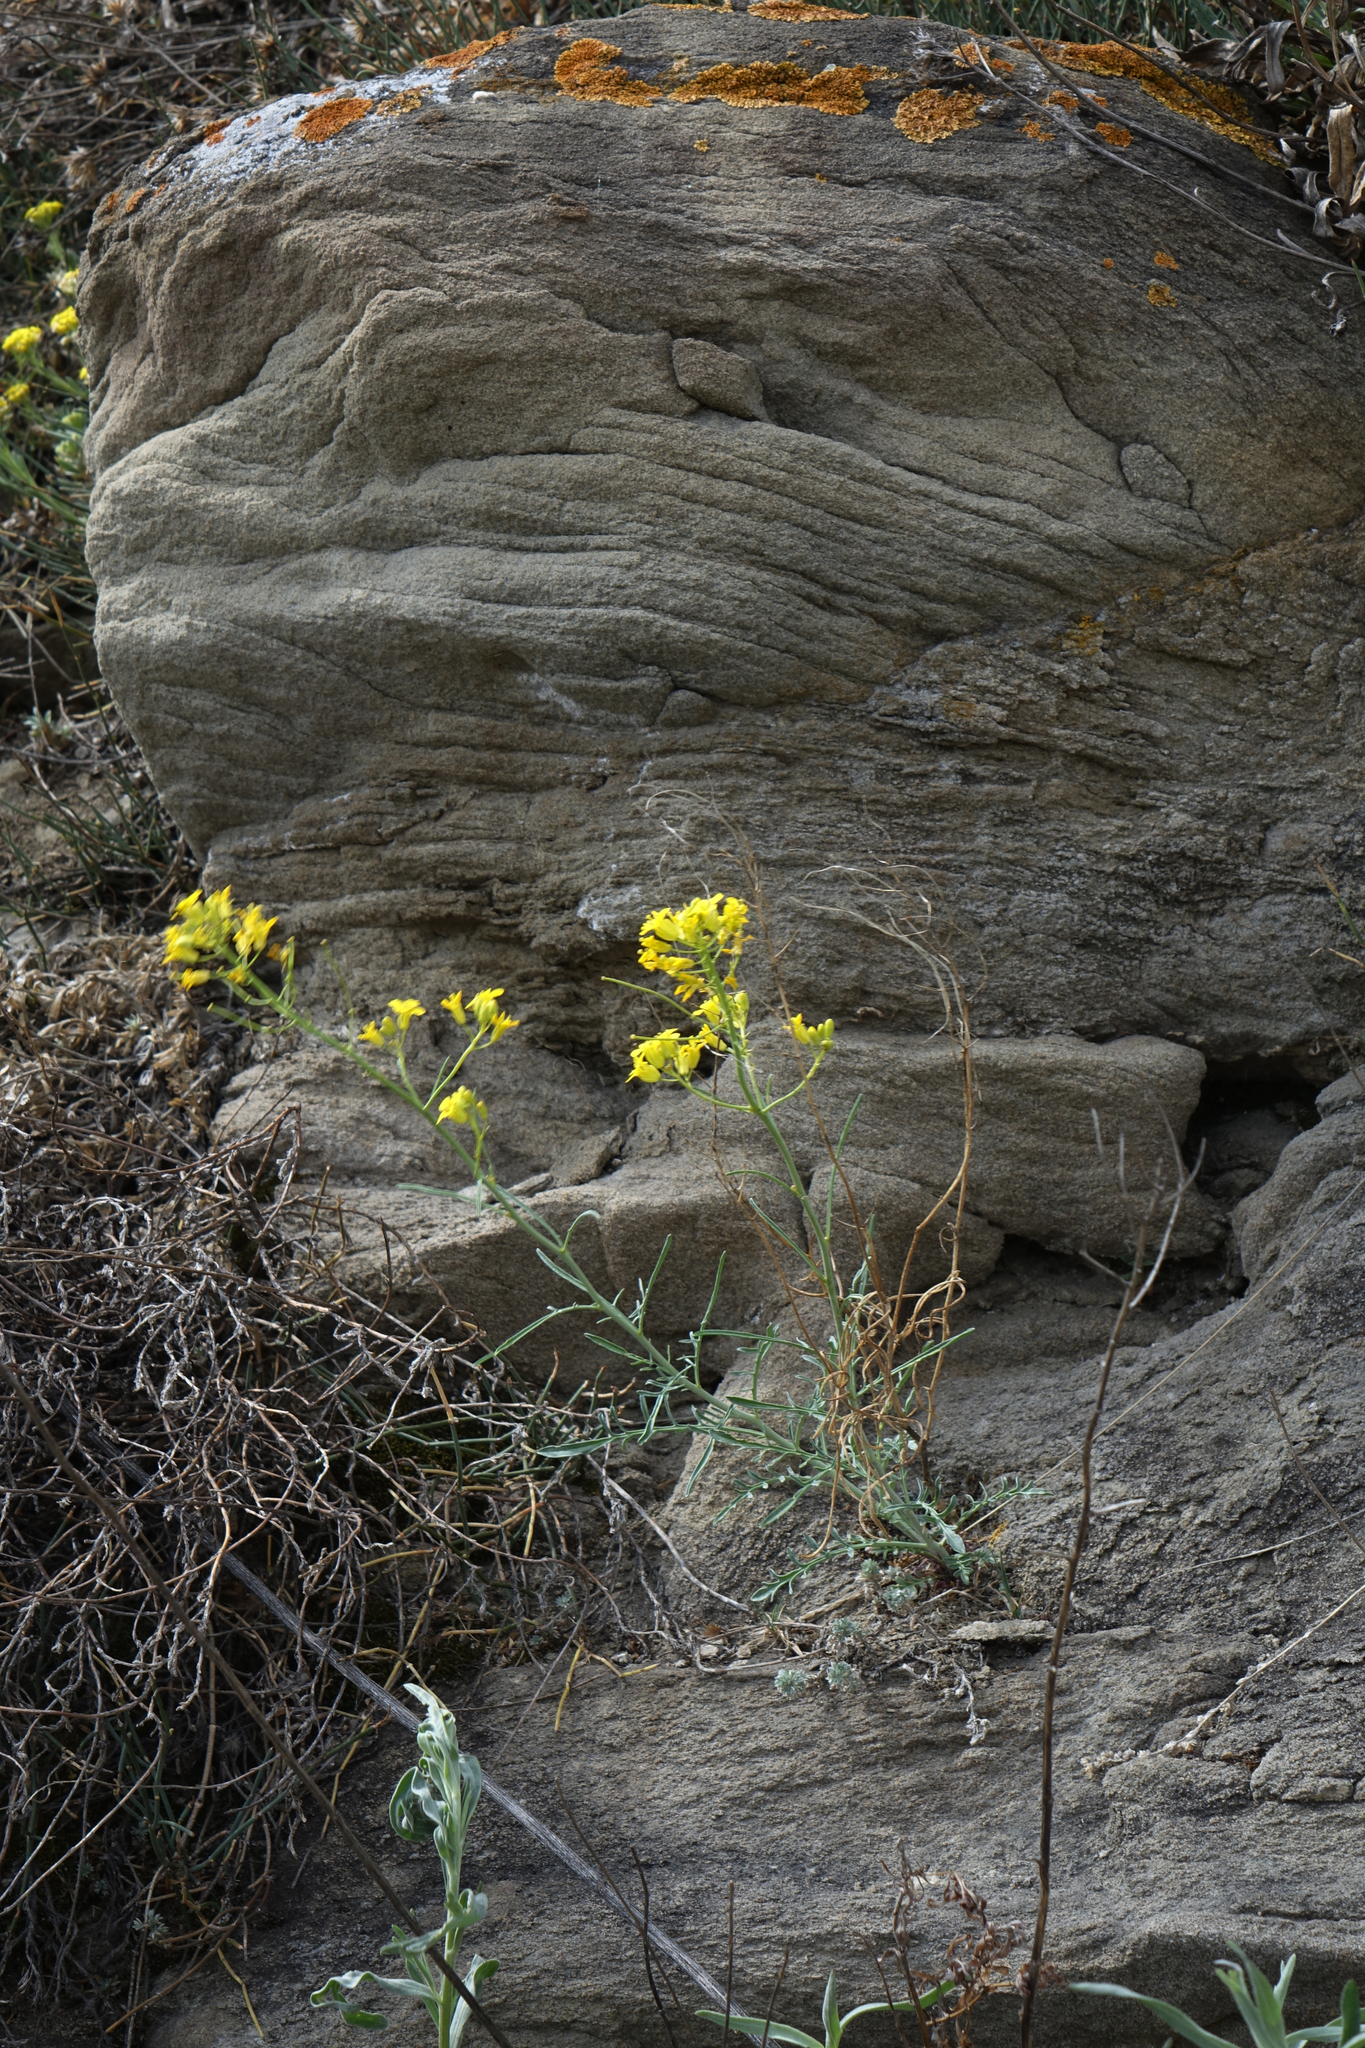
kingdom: Plantae
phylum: Tracheophyta
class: Magnoliopsida
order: Brassicales
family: Brassicaceae
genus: Sisymbrium
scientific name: Sisymbrium polymorphum
